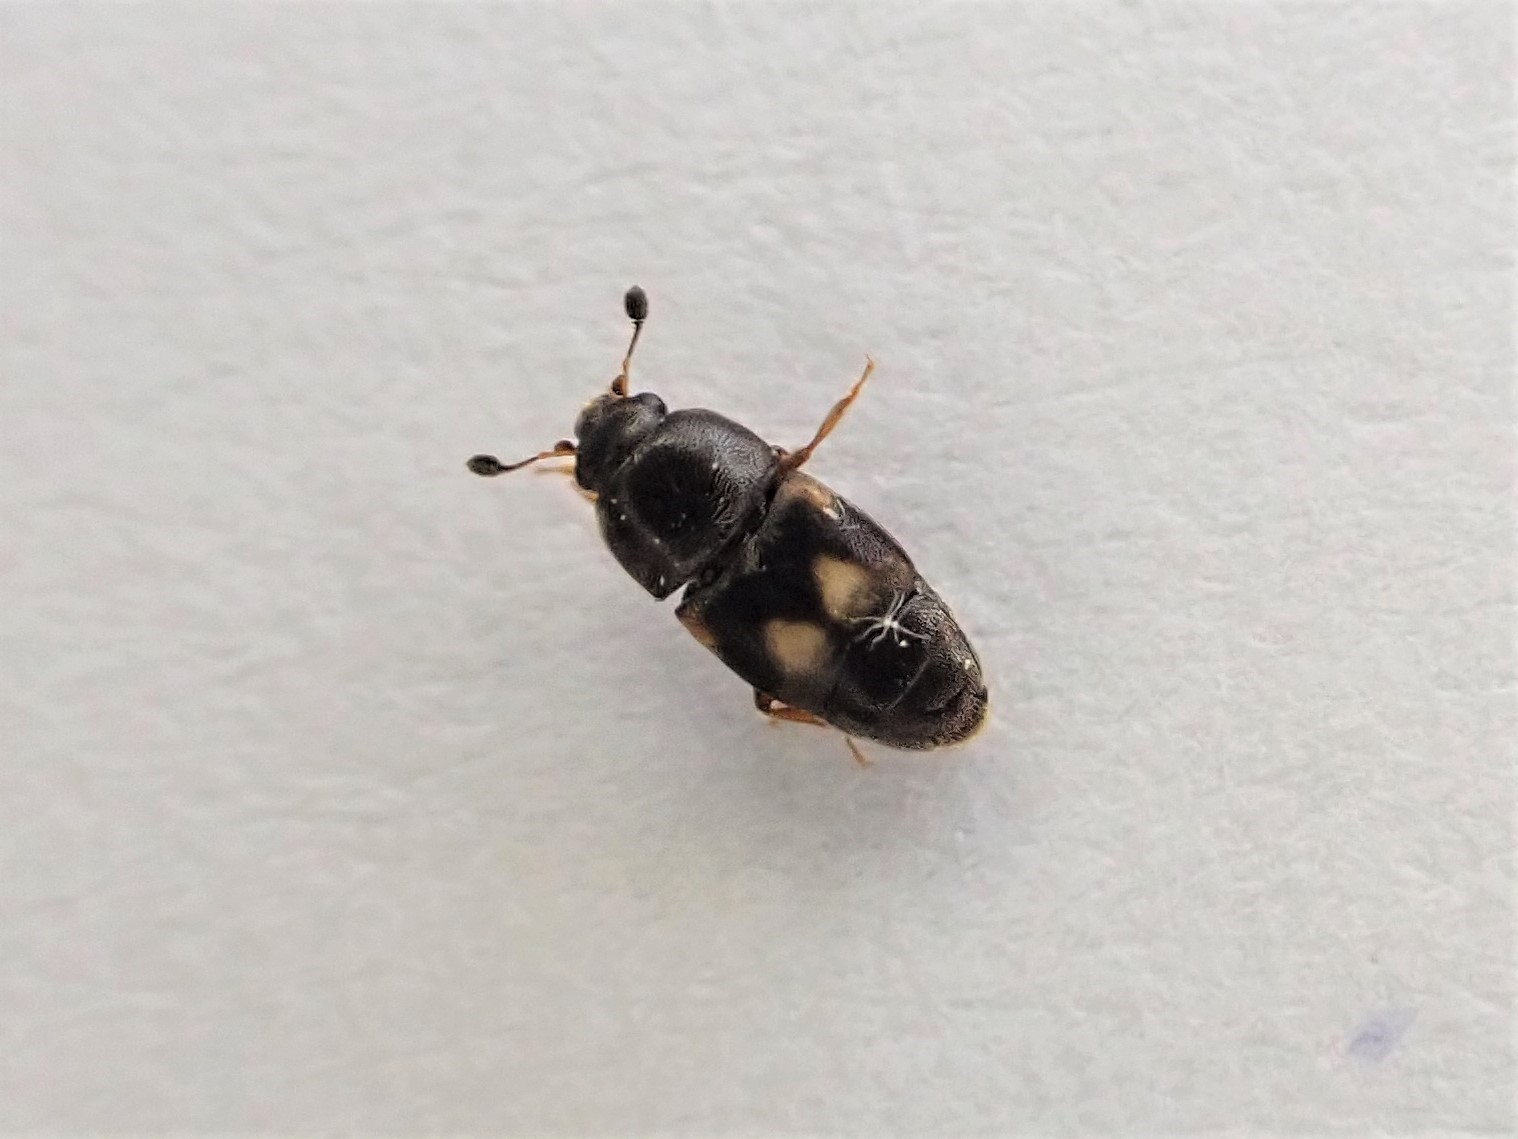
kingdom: Animalia
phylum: Arthropoda
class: Insecta
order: Coleoptera
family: Nitidulidae
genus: Carpophilus
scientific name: Carpophilus hemipterus
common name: Dried fruit beetle
